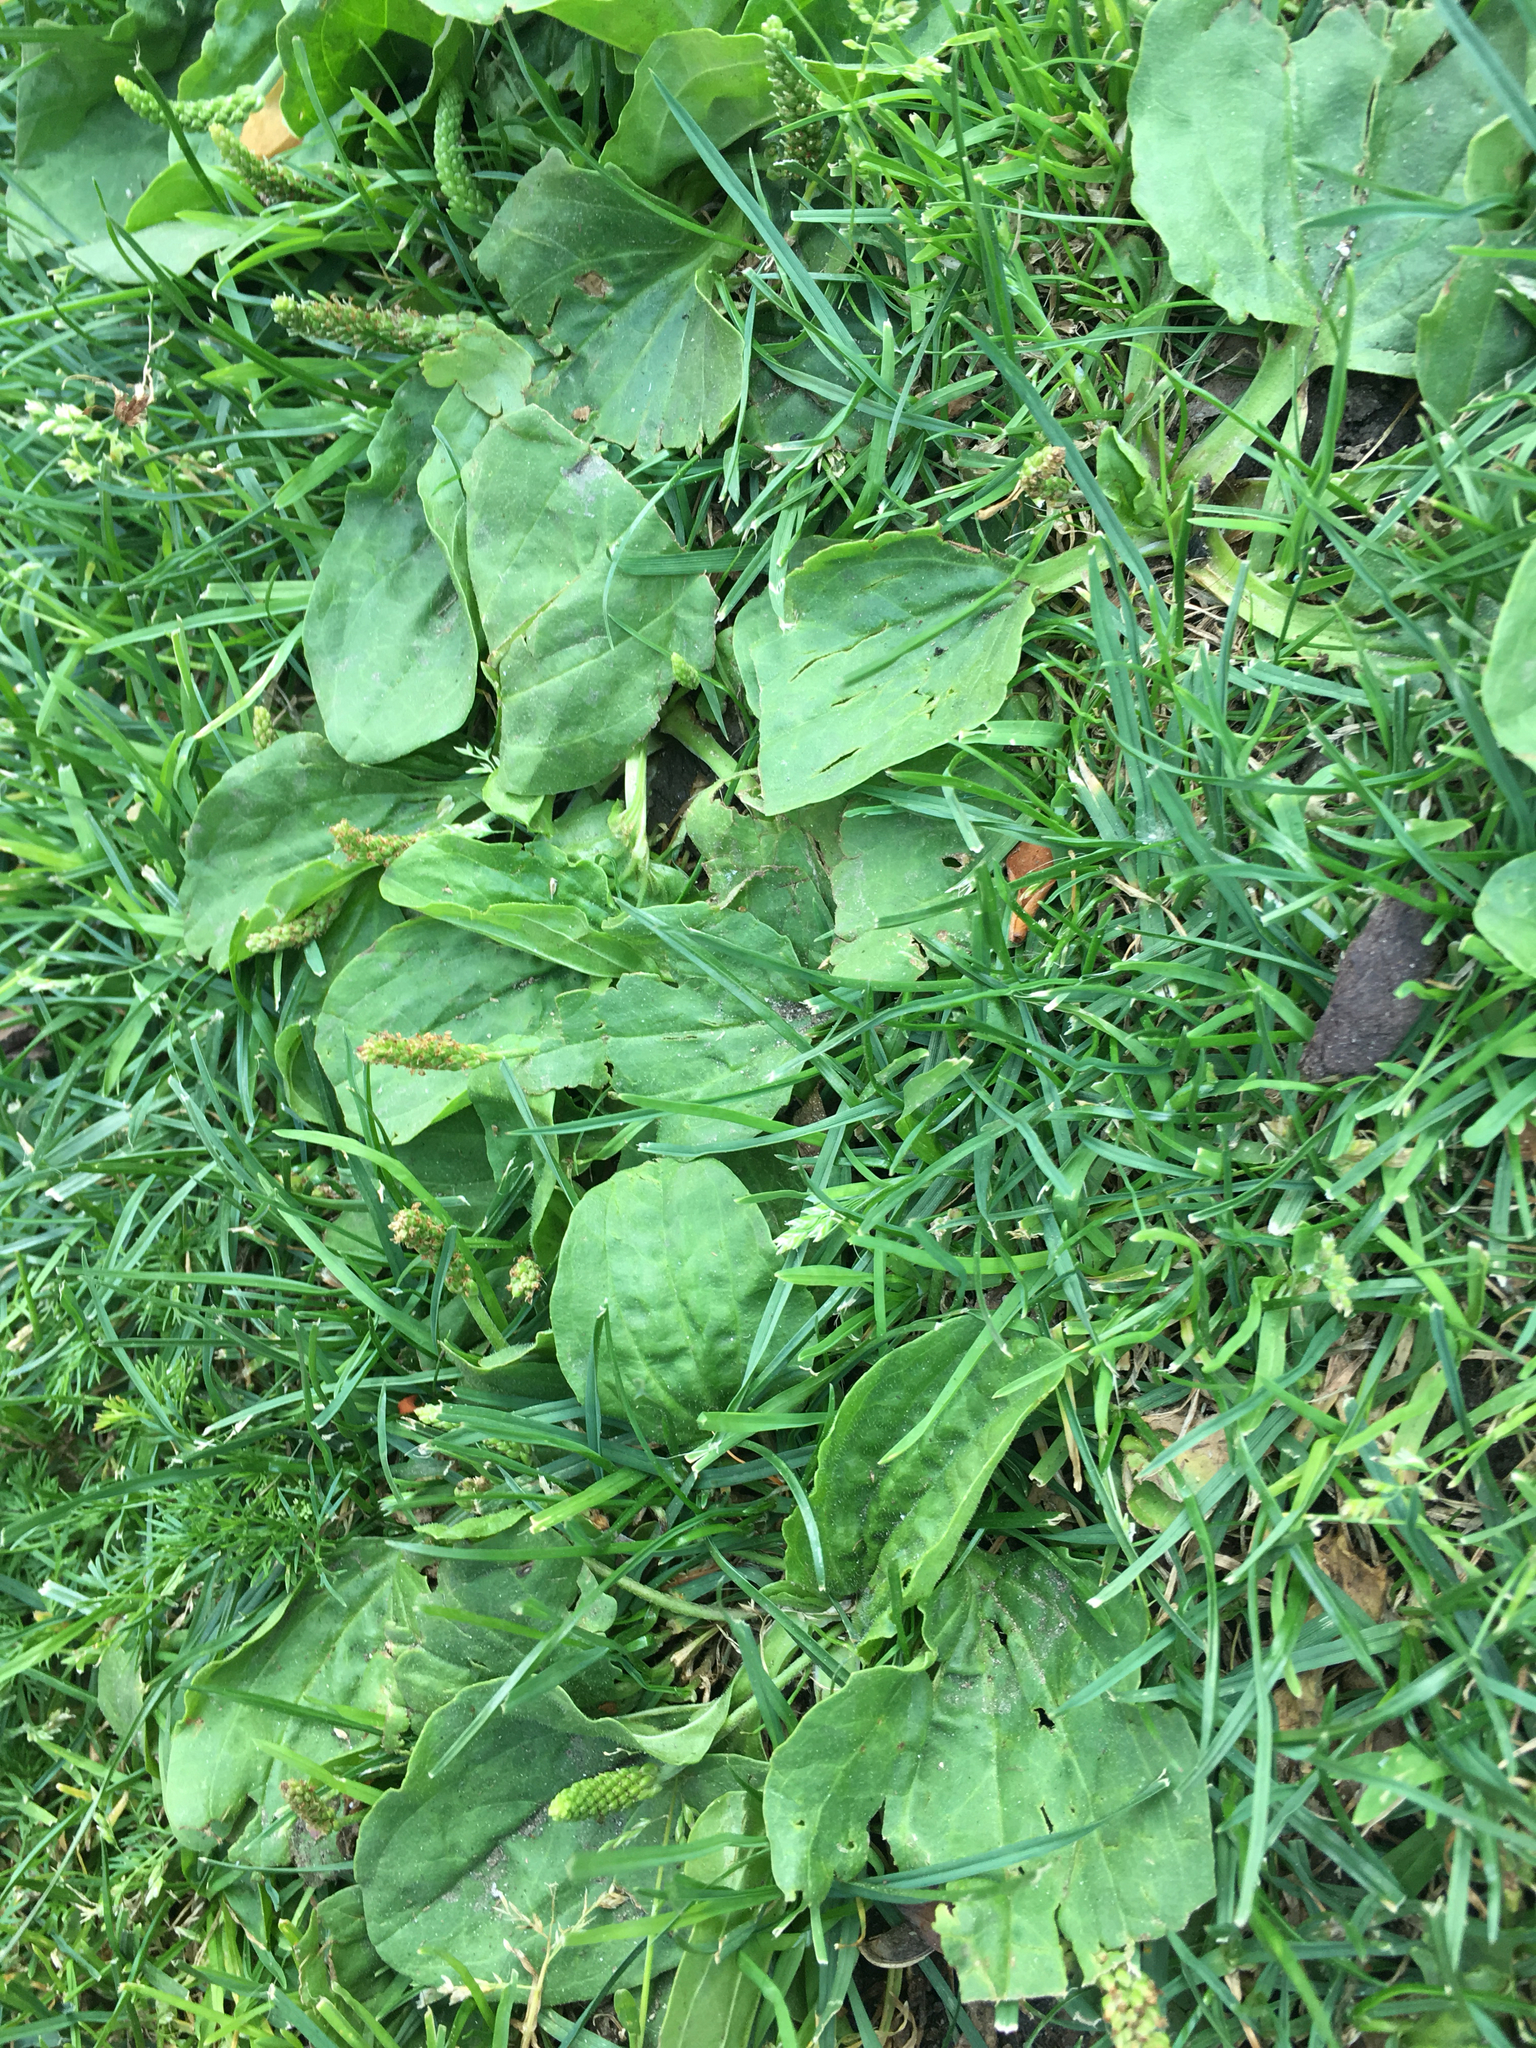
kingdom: Plantae
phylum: Tracheophyta
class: Magnoliopsida
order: Lamiales
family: Plantaginaceae
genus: Plantago
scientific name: Plantago major
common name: Common plantain
